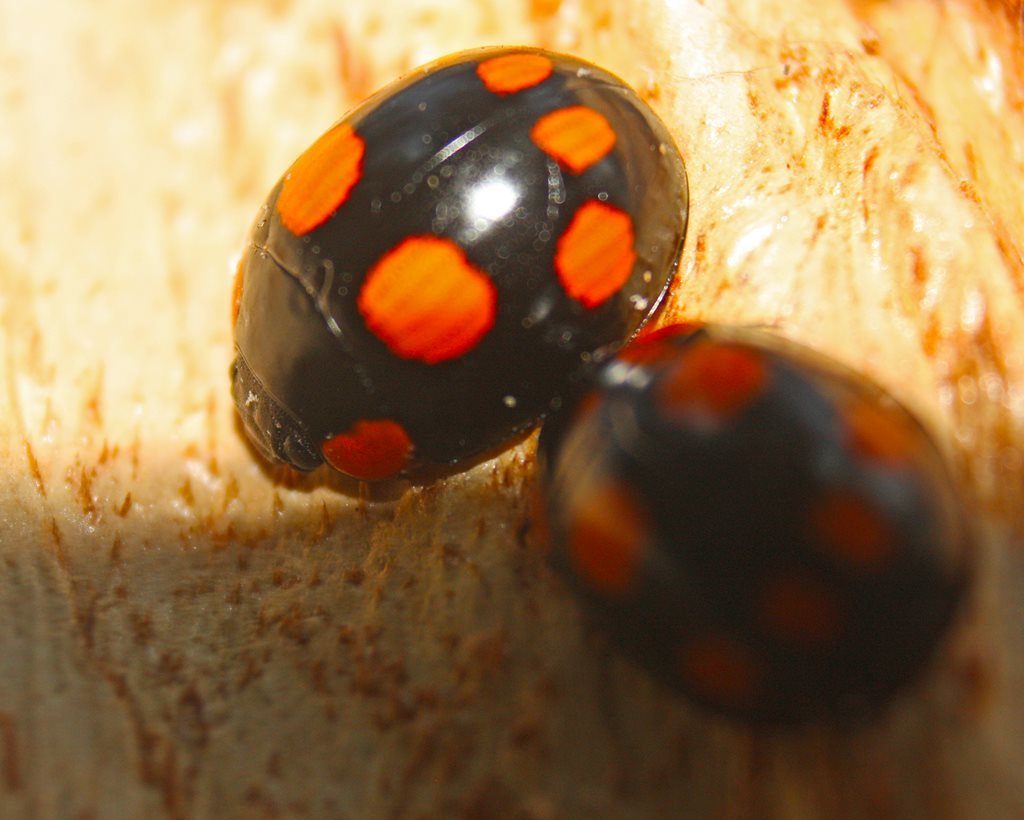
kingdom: Animalia
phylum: Arthropoda
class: Insecta
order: Coleoptera
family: Chrysomelidae
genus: Paropsisterna
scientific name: Paropsisterna
